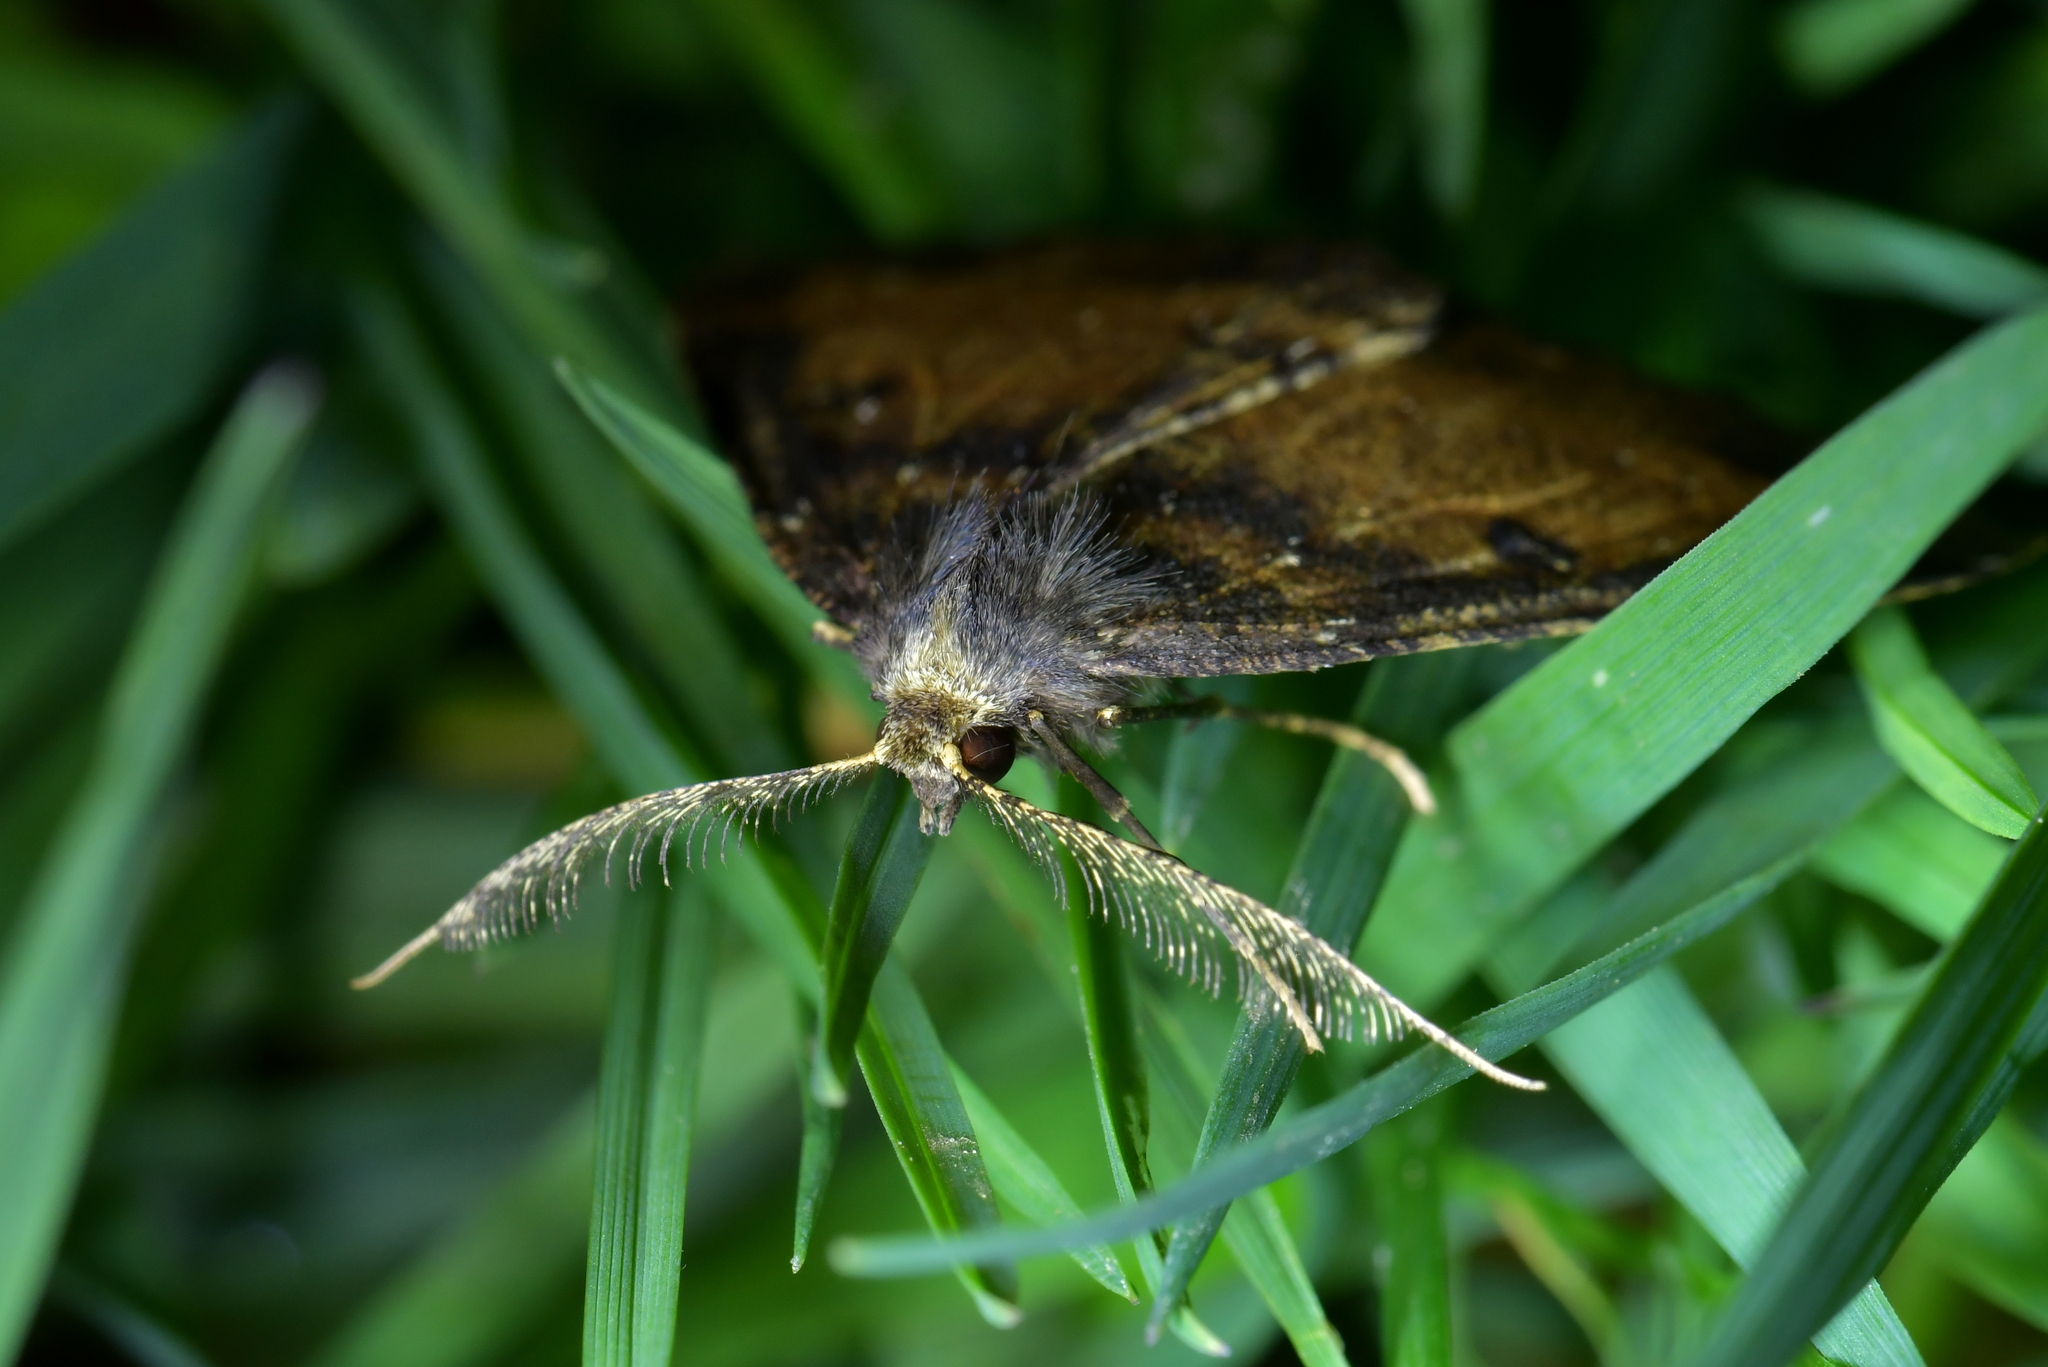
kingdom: Animalia
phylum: Arthropoda
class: Insecta
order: Lepidoptera
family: Geometridae
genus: Cleora
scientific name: Cleora scriptaria
